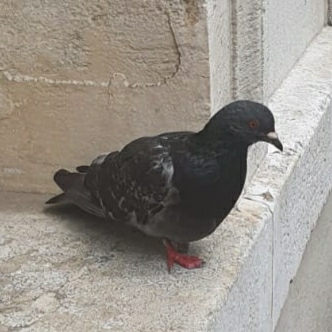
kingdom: Animalia
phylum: Chordata
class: Aves
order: Columbiformes
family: Columbidae
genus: Columba
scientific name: Columba livia
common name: Rock pigeon
